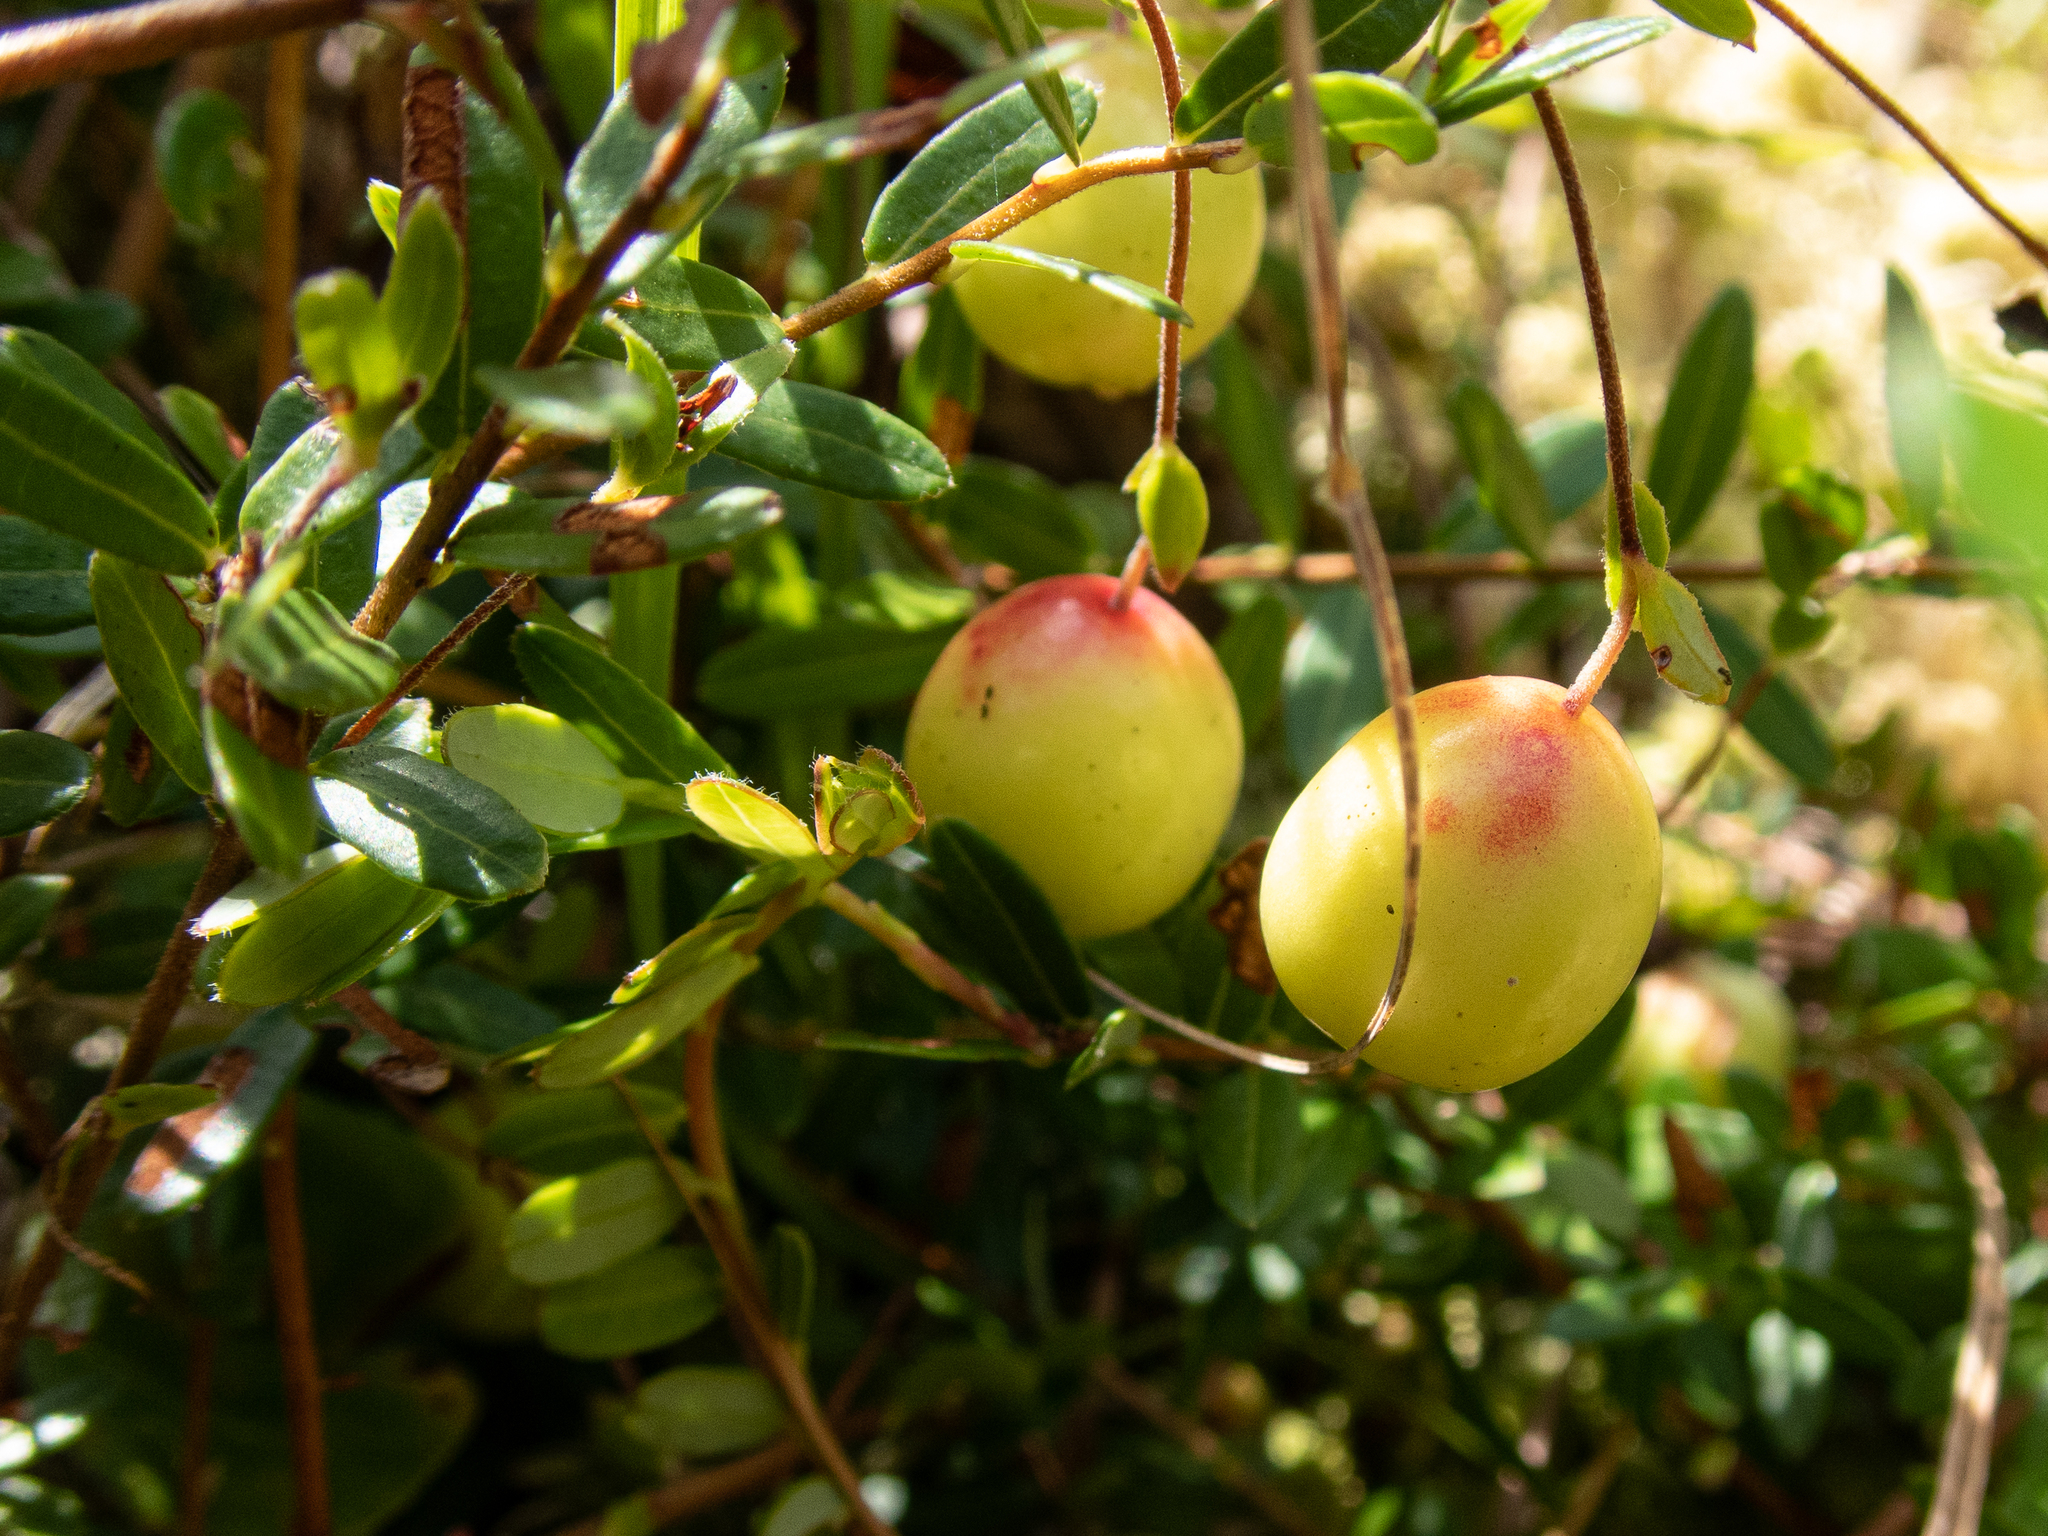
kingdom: Plantae
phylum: Tracheophyta
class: Magnoliopsida
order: Ericales
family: Ericaceae
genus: Vaccinium
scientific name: Vaccinium macrocarpon
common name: American cranberry
